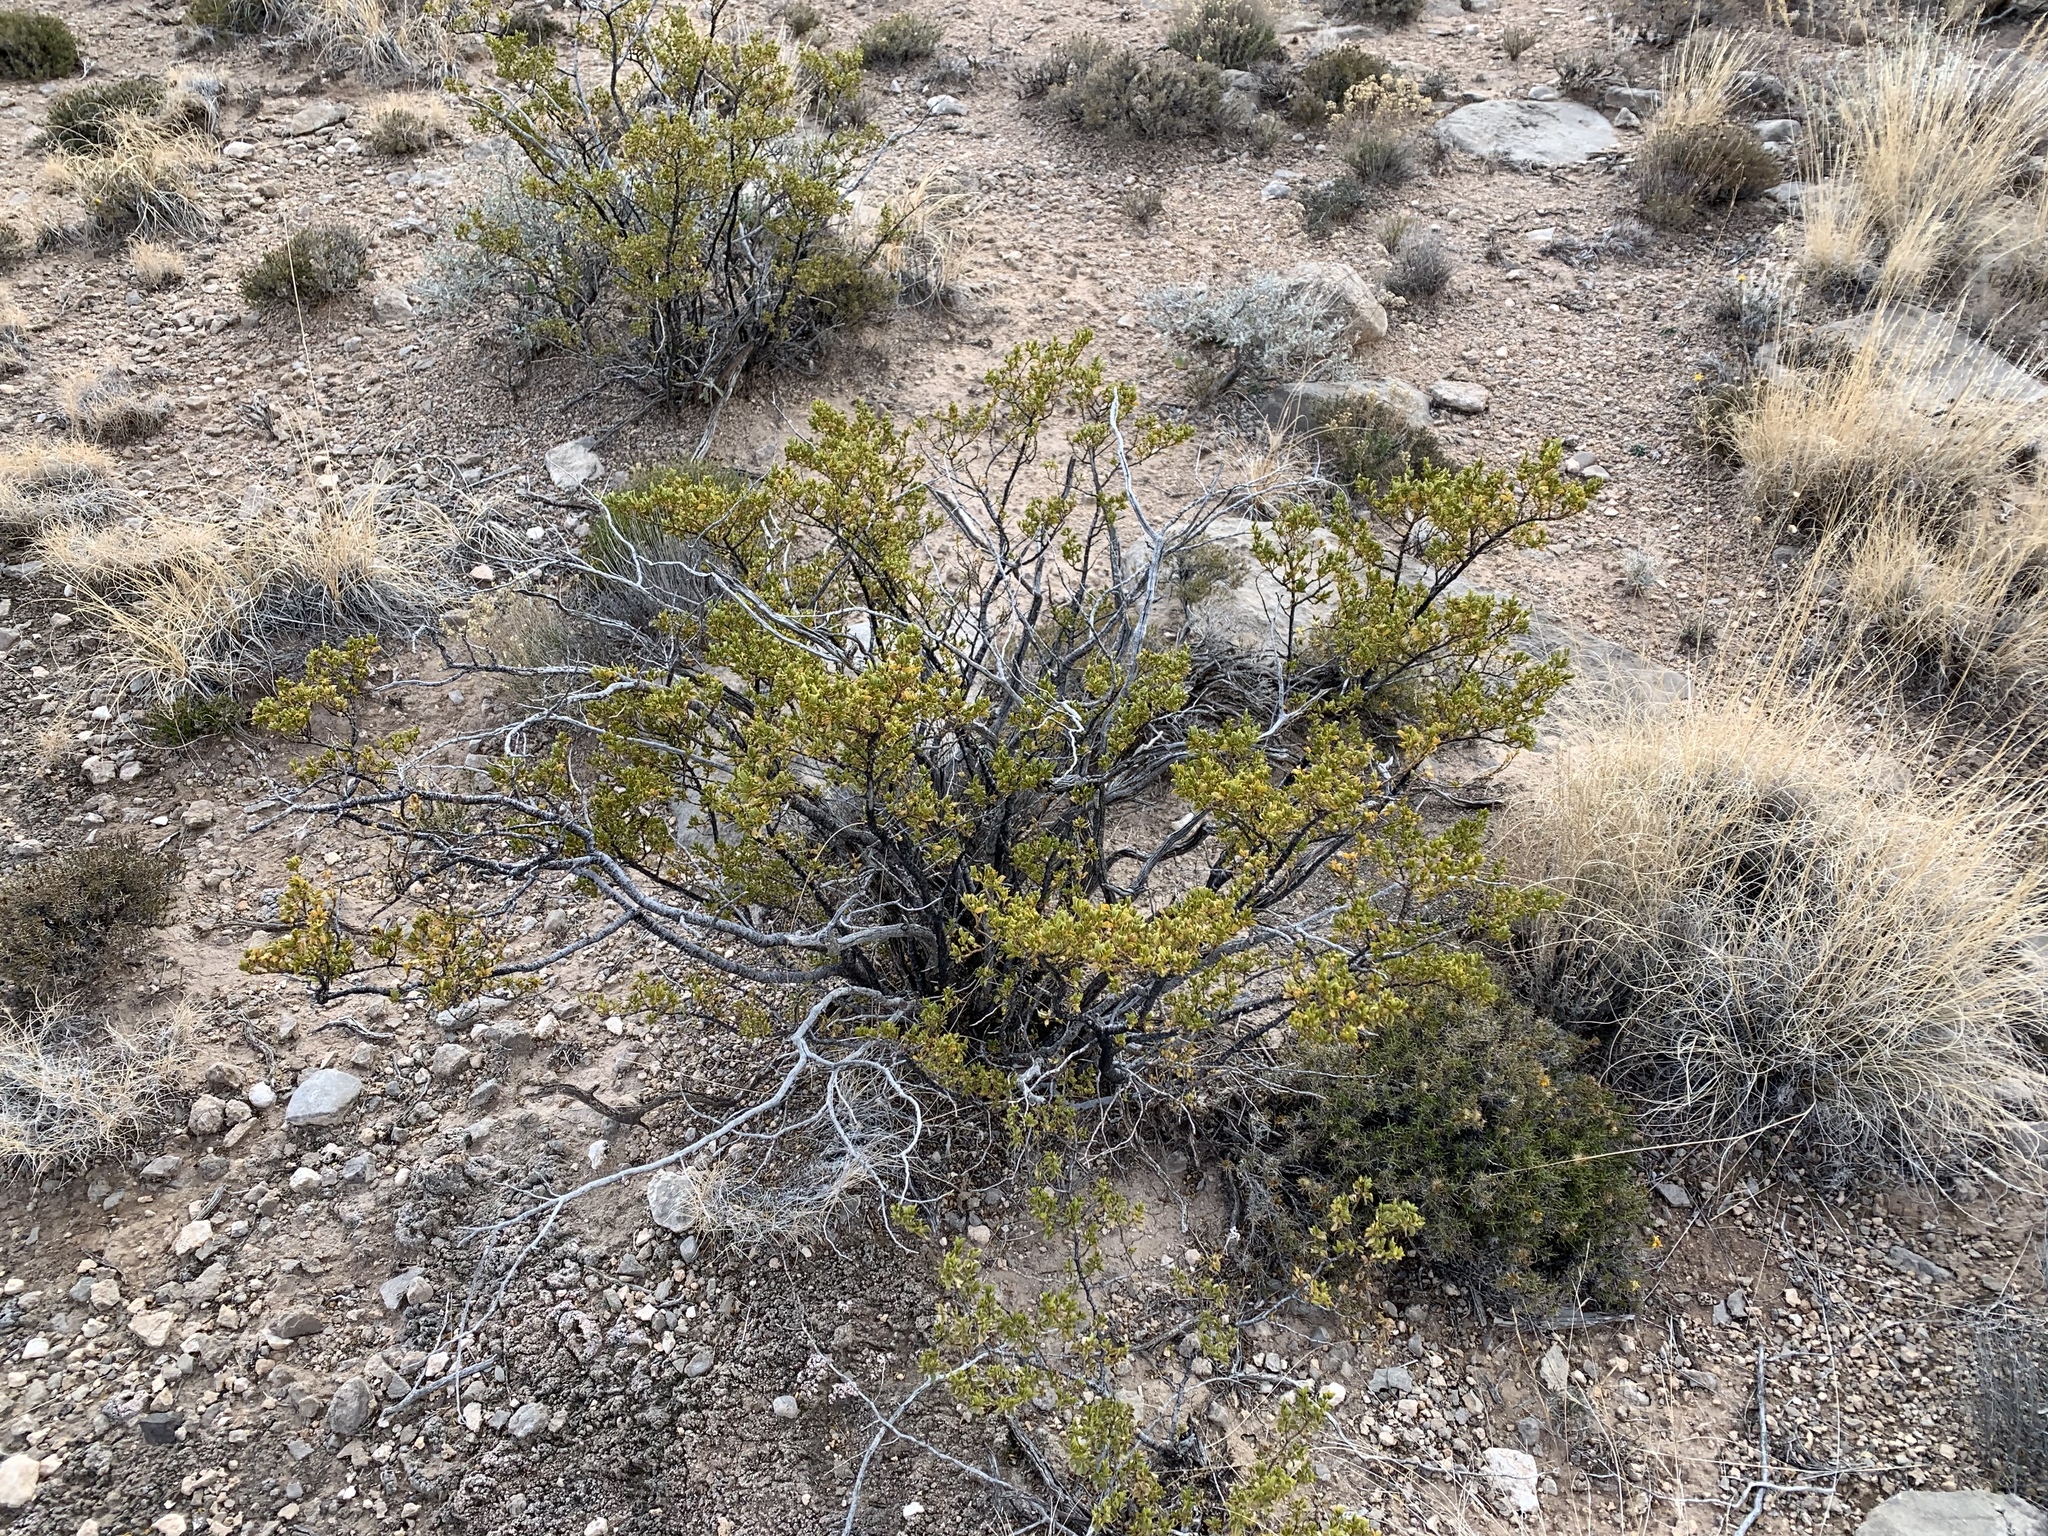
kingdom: Plantae
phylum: Tracheophyta
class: Magnoliopsida
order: Zygophyllales
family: Zygophyllaceae
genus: Larrea
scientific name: Larrea tridentata
